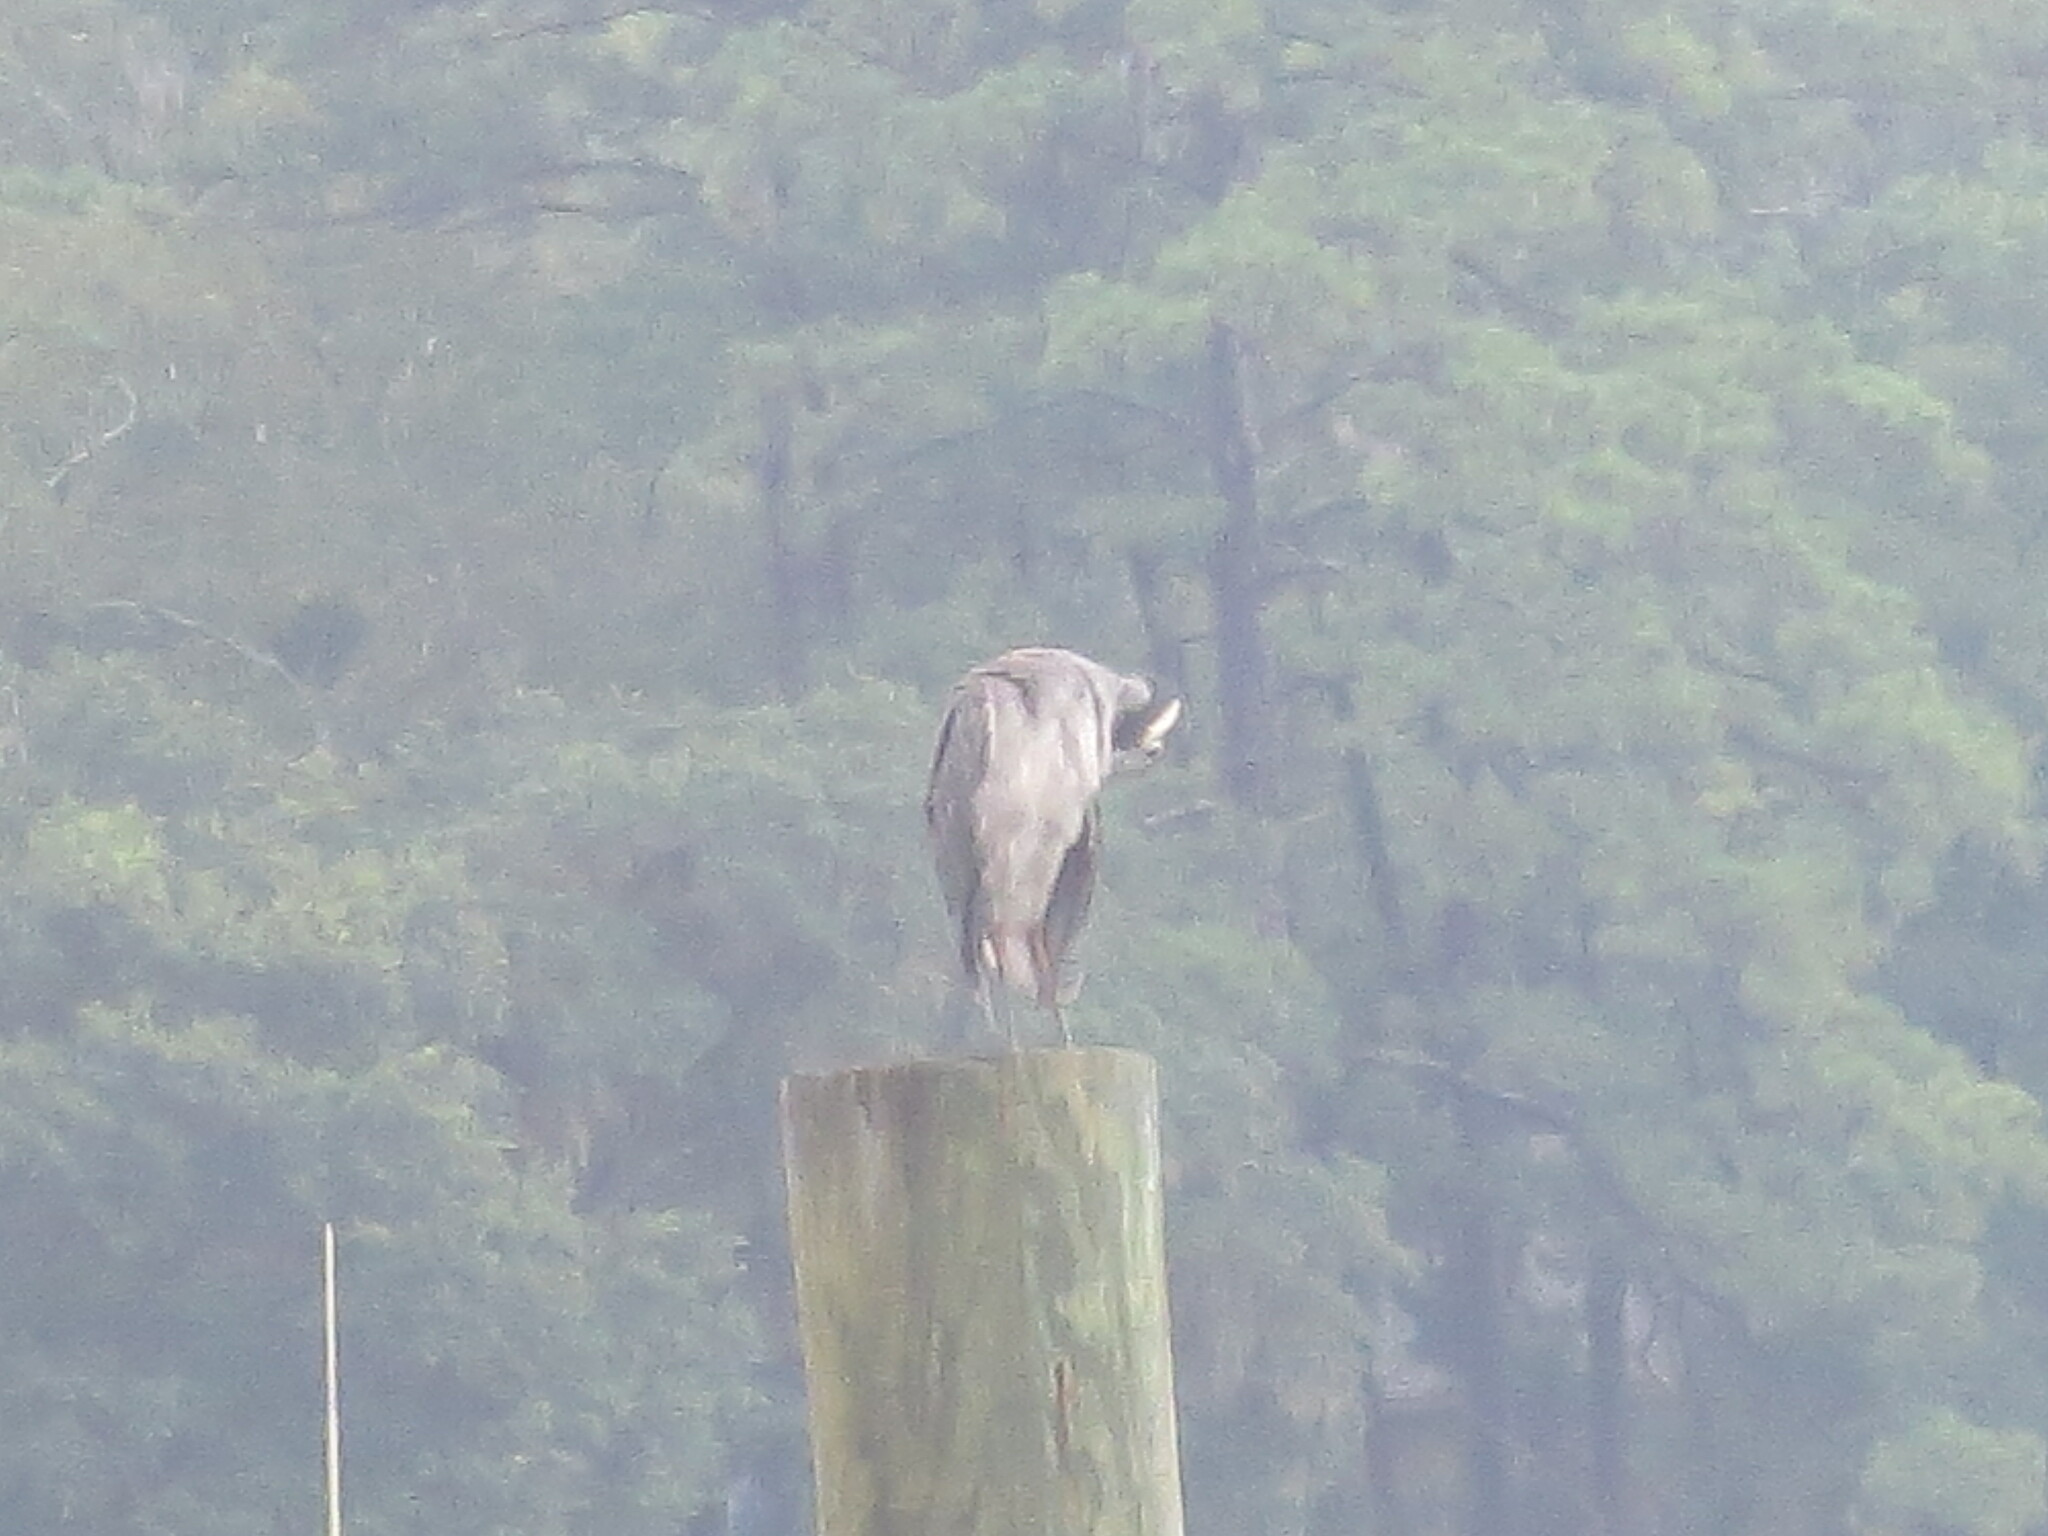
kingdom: Animalia
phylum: Chordata
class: Aves
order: Pelecaniformes
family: Ardeidae
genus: Nyctanassa
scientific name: Nyctanassa violacea
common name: Yellow-crowned night heron
